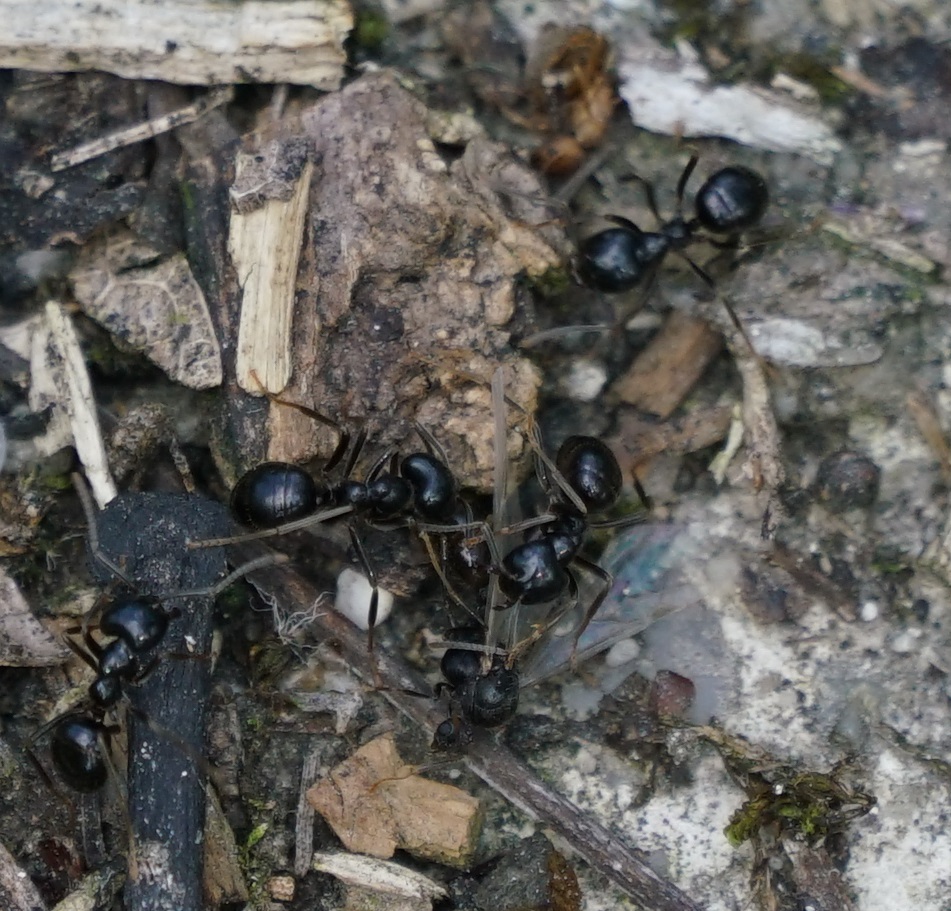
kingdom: Animalia
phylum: Arthropoda
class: Insecta
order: Hymenoptera
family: Formicidae
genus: Lasius
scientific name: Lasius fuliginosus
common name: Jet ant
